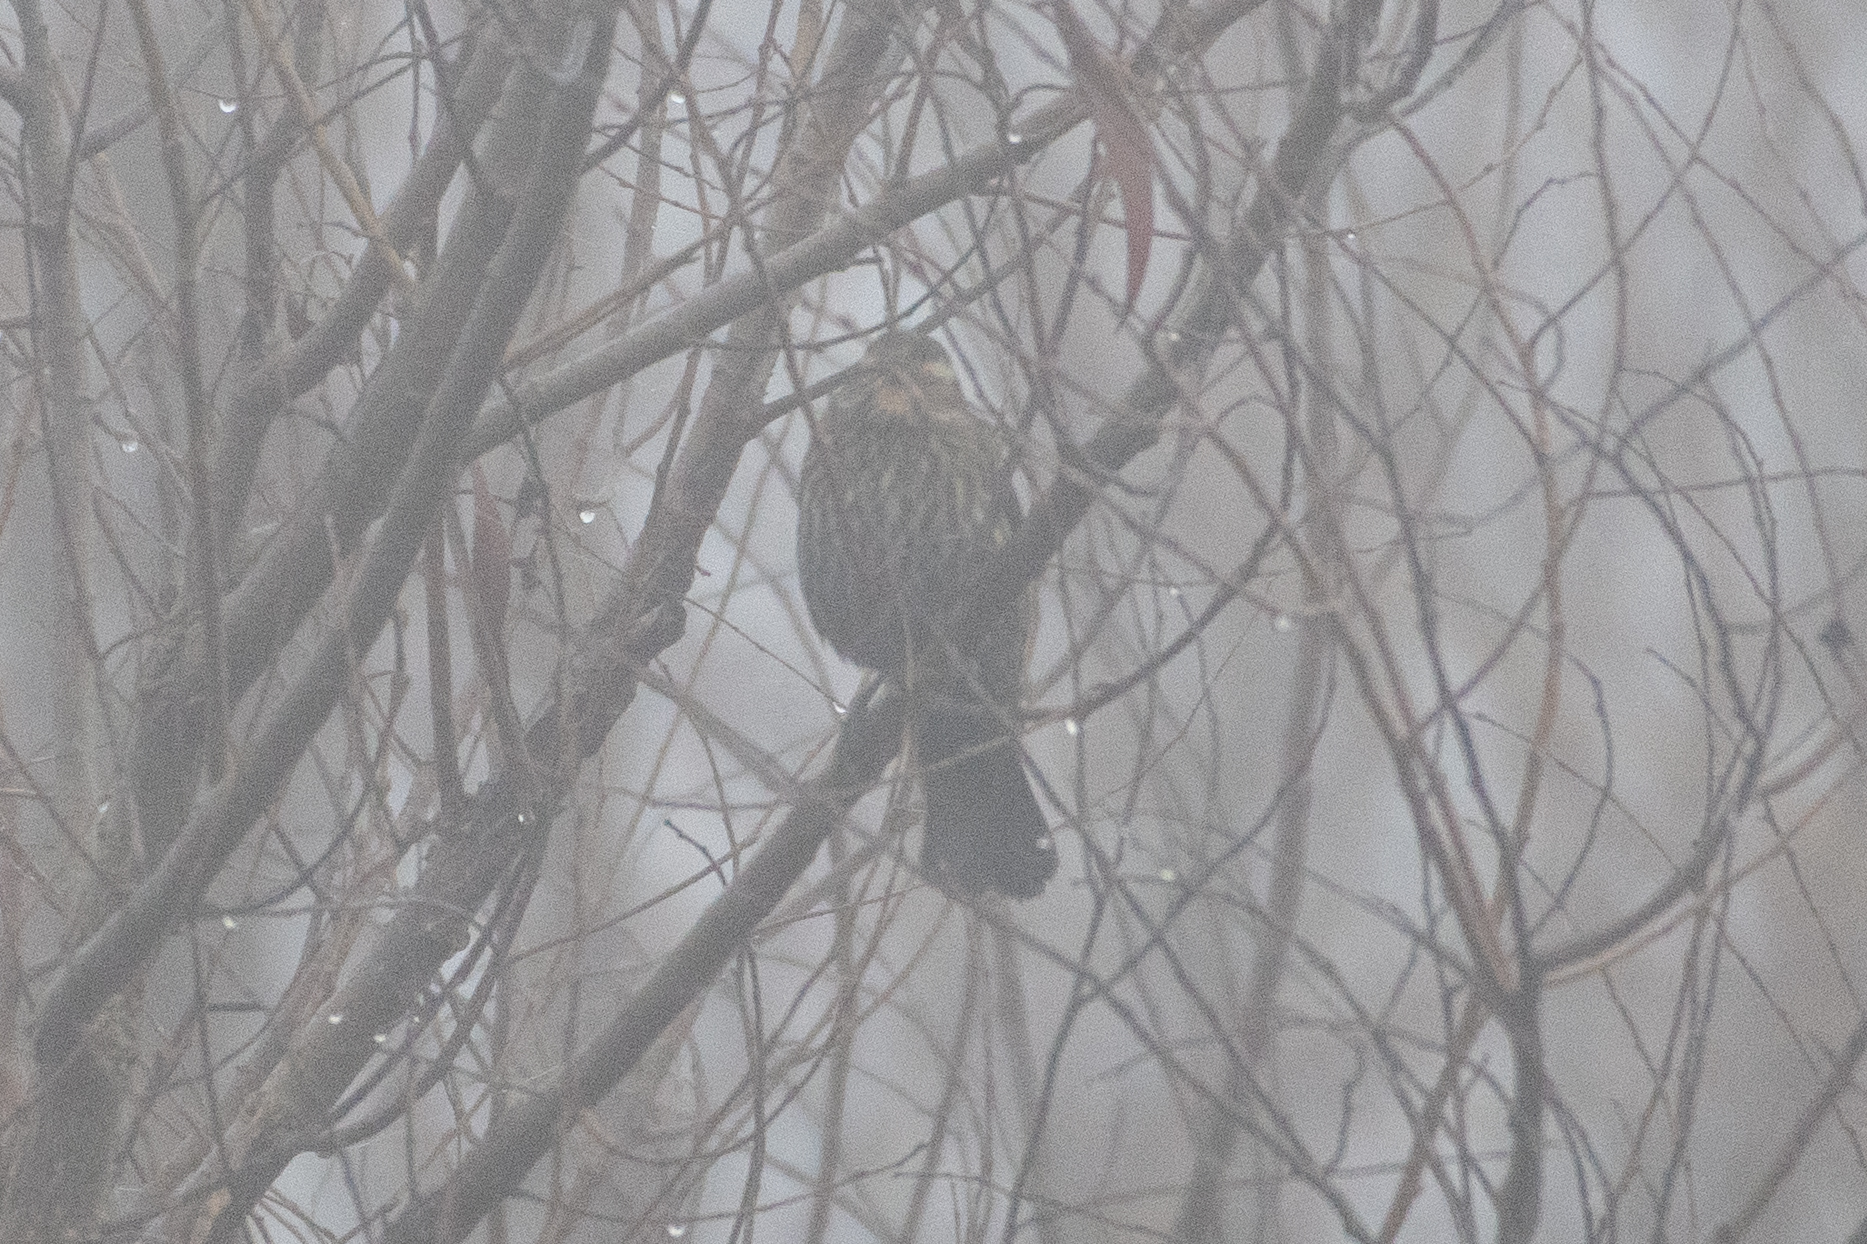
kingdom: Animalia
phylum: Chordata
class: Aves
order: Passeriformes
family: Icteridae
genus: Agelaius
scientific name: Agelaius phoeniceus
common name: Red-winged blackbird
